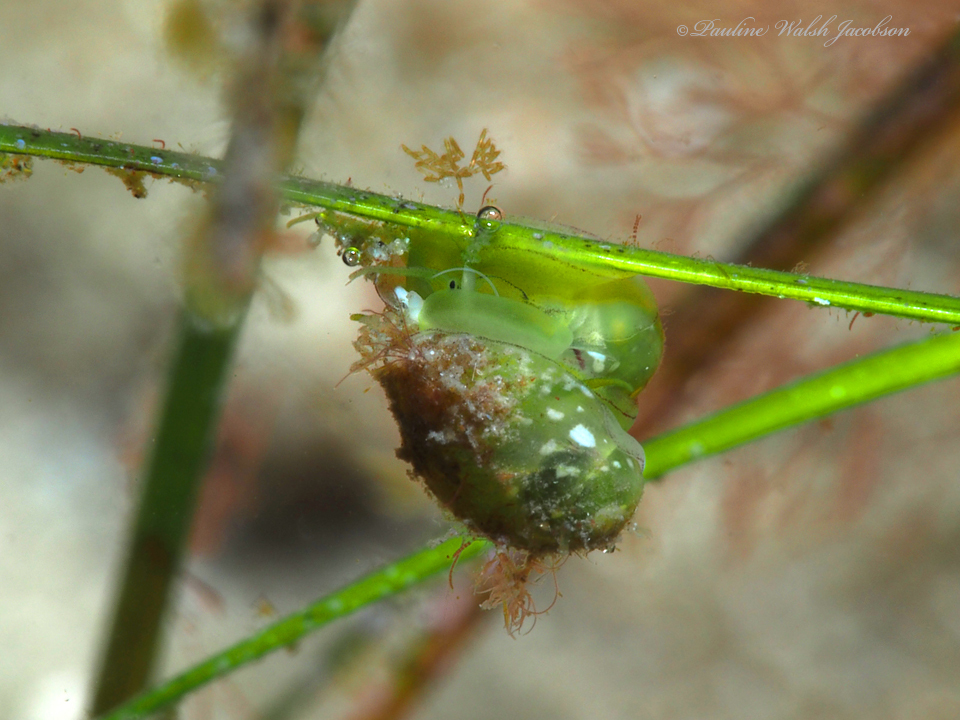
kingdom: Animalia
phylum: Mollusca
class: Gastropoda
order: Cycloneritida
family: Neritidae
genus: Smaragdia
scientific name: Smaragdia viridis
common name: Emerald nerite
